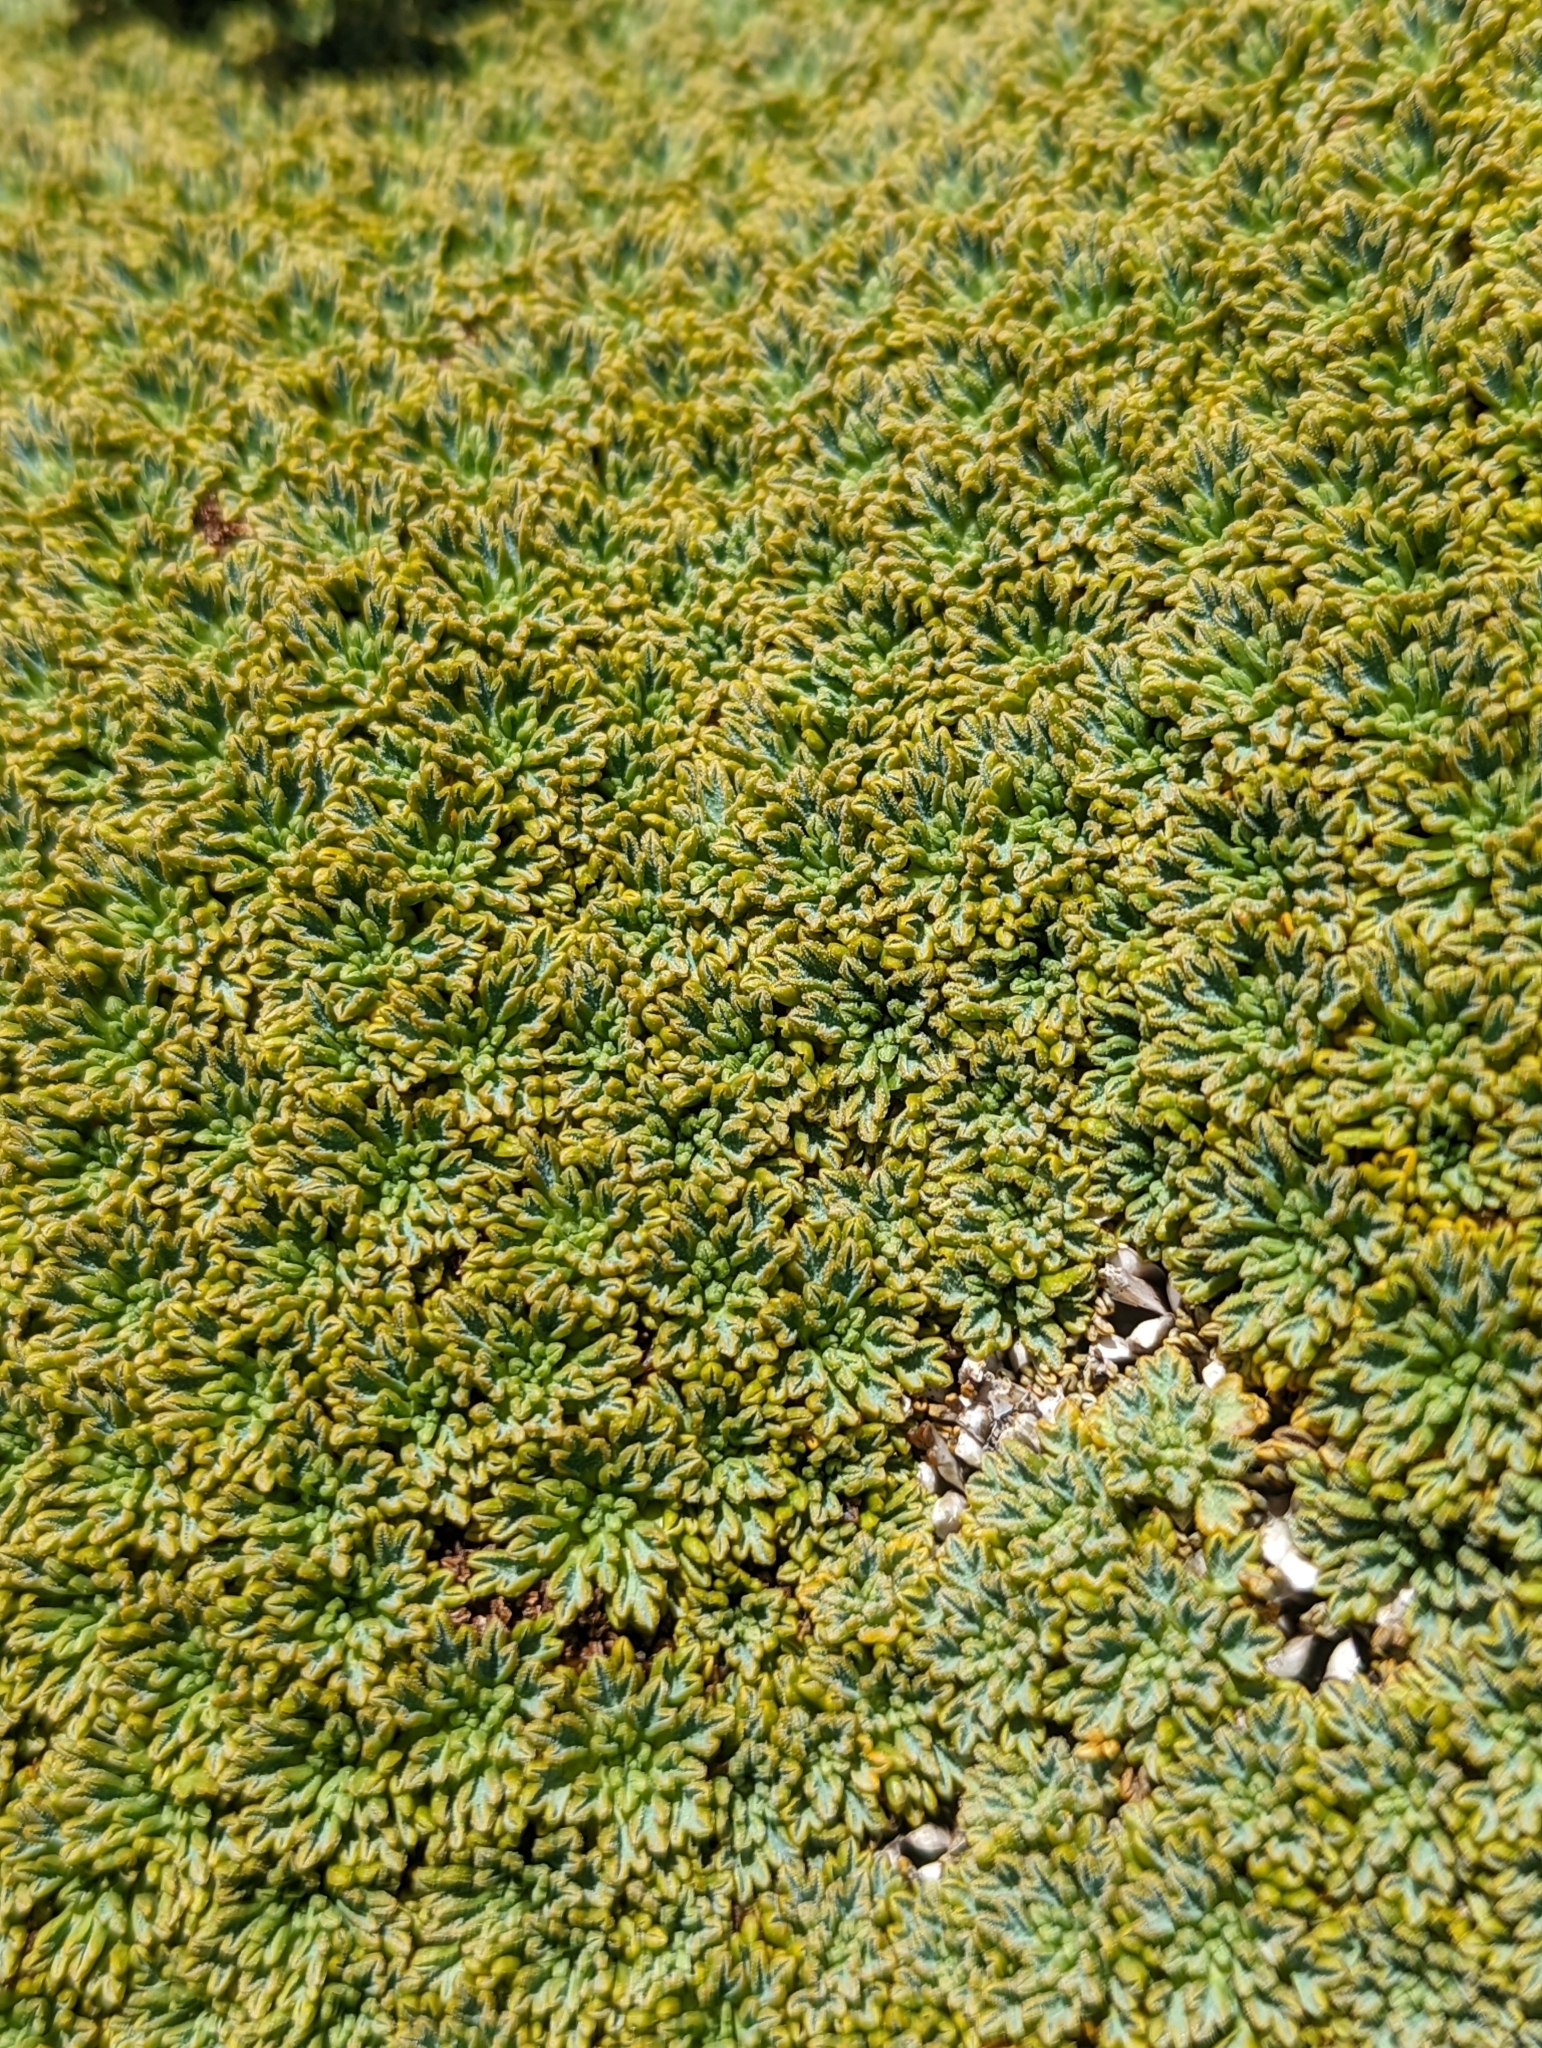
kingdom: Plantae
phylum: Tracheophyta
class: Magnoliopsida
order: Apiales
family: Apiaceae
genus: Bolax
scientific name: Bolax gummifera
